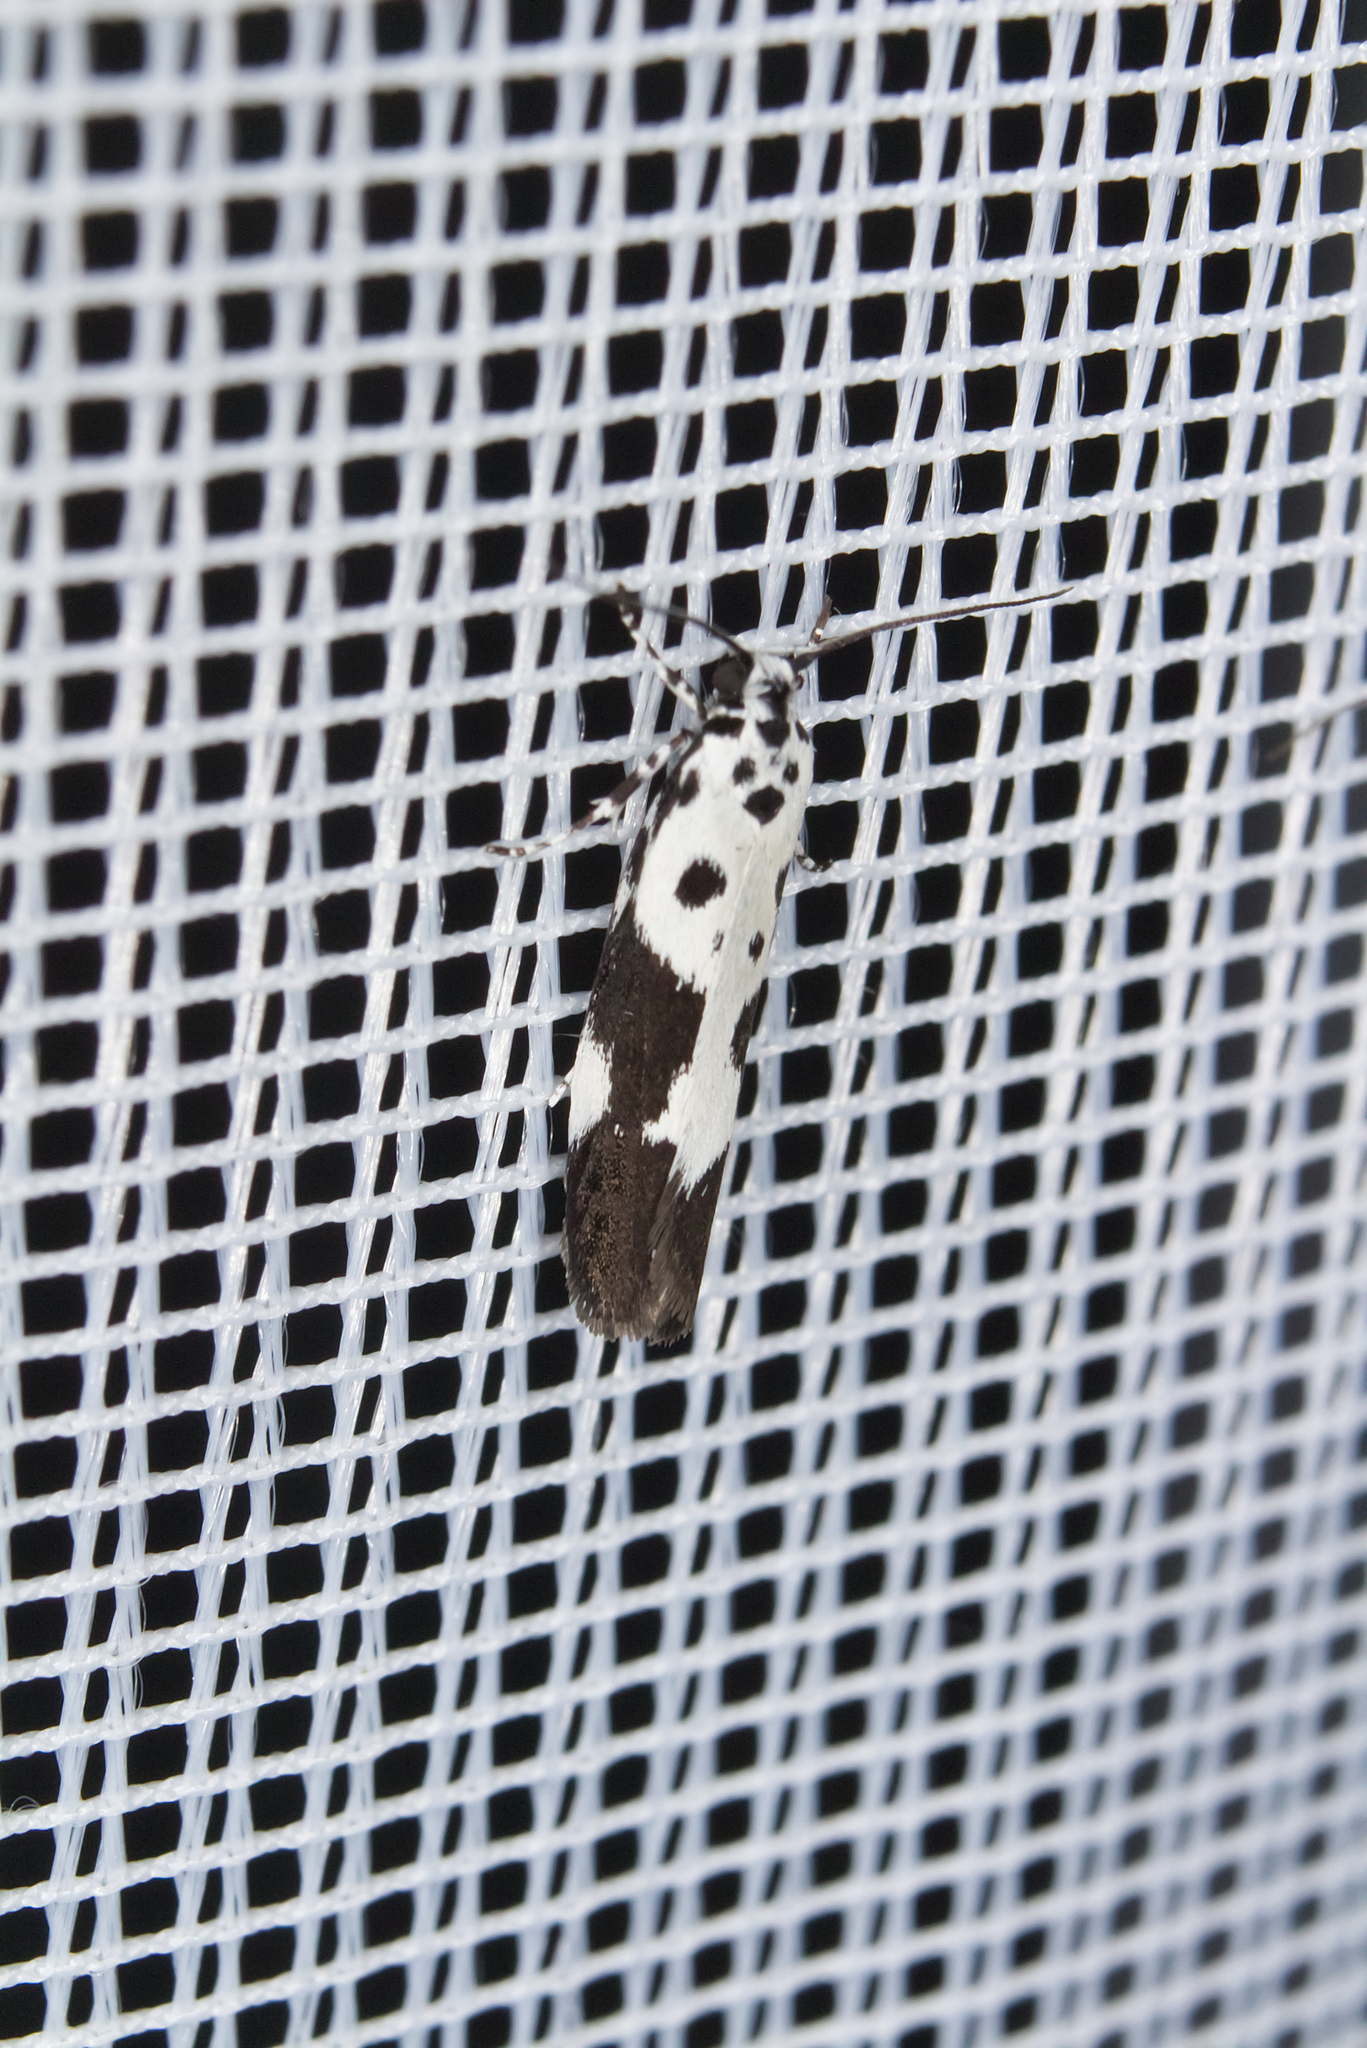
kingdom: Animalia
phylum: Arthropoda
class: Insecta
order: Lepidoptera
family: Ethmiidae
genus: Ethmia
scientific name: Ethmia quadrillella
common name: Comfrey ermel
